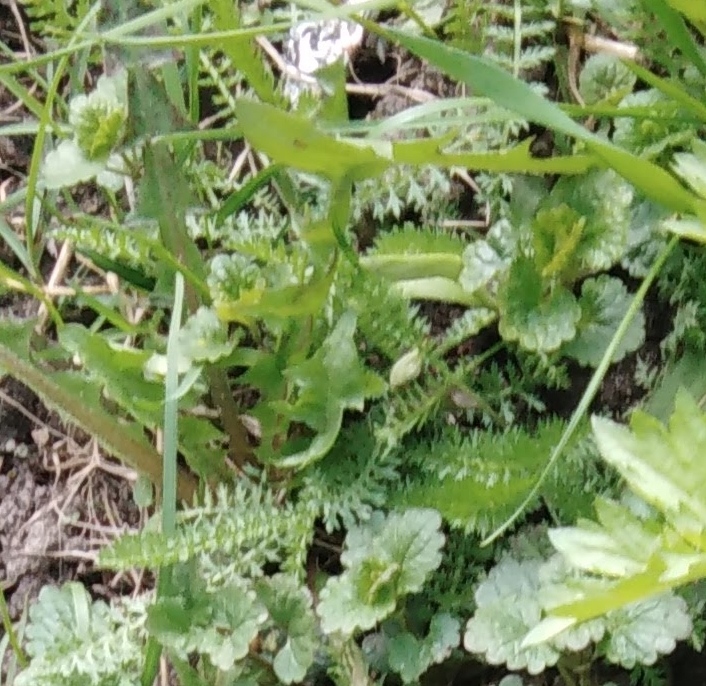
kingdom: Plantae
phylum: Tracheophyta
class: Magnoliopsida
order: Asterales
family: Asteraceae
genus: Achillea
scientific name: Achillea millefolium
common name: Yarrow
